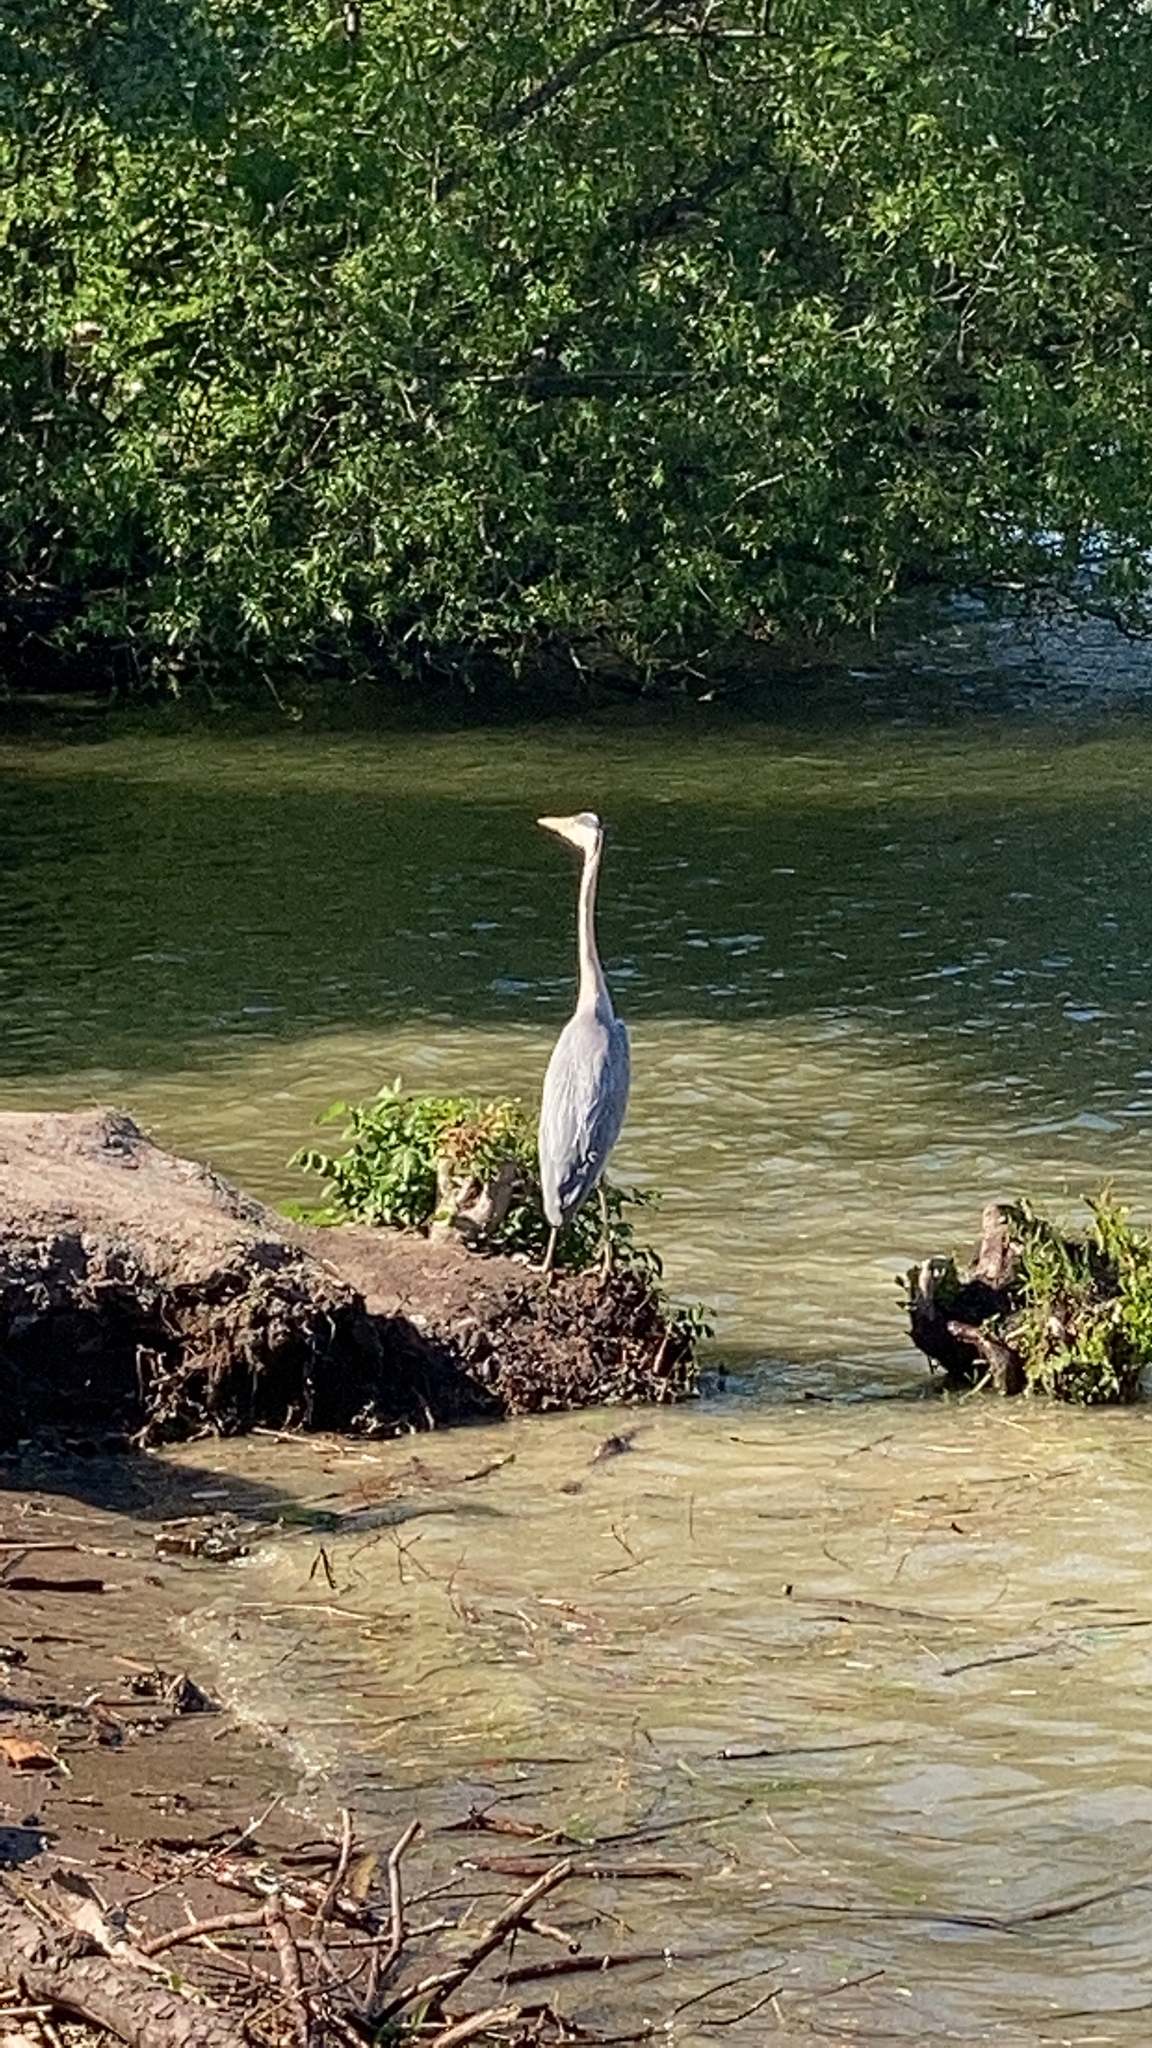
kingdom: Animalia
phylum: Chordata
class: Aves
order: Pelecaniformes
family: Ardeidae
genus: Ardea
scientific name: Ardea cinerea
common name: Grey heron
